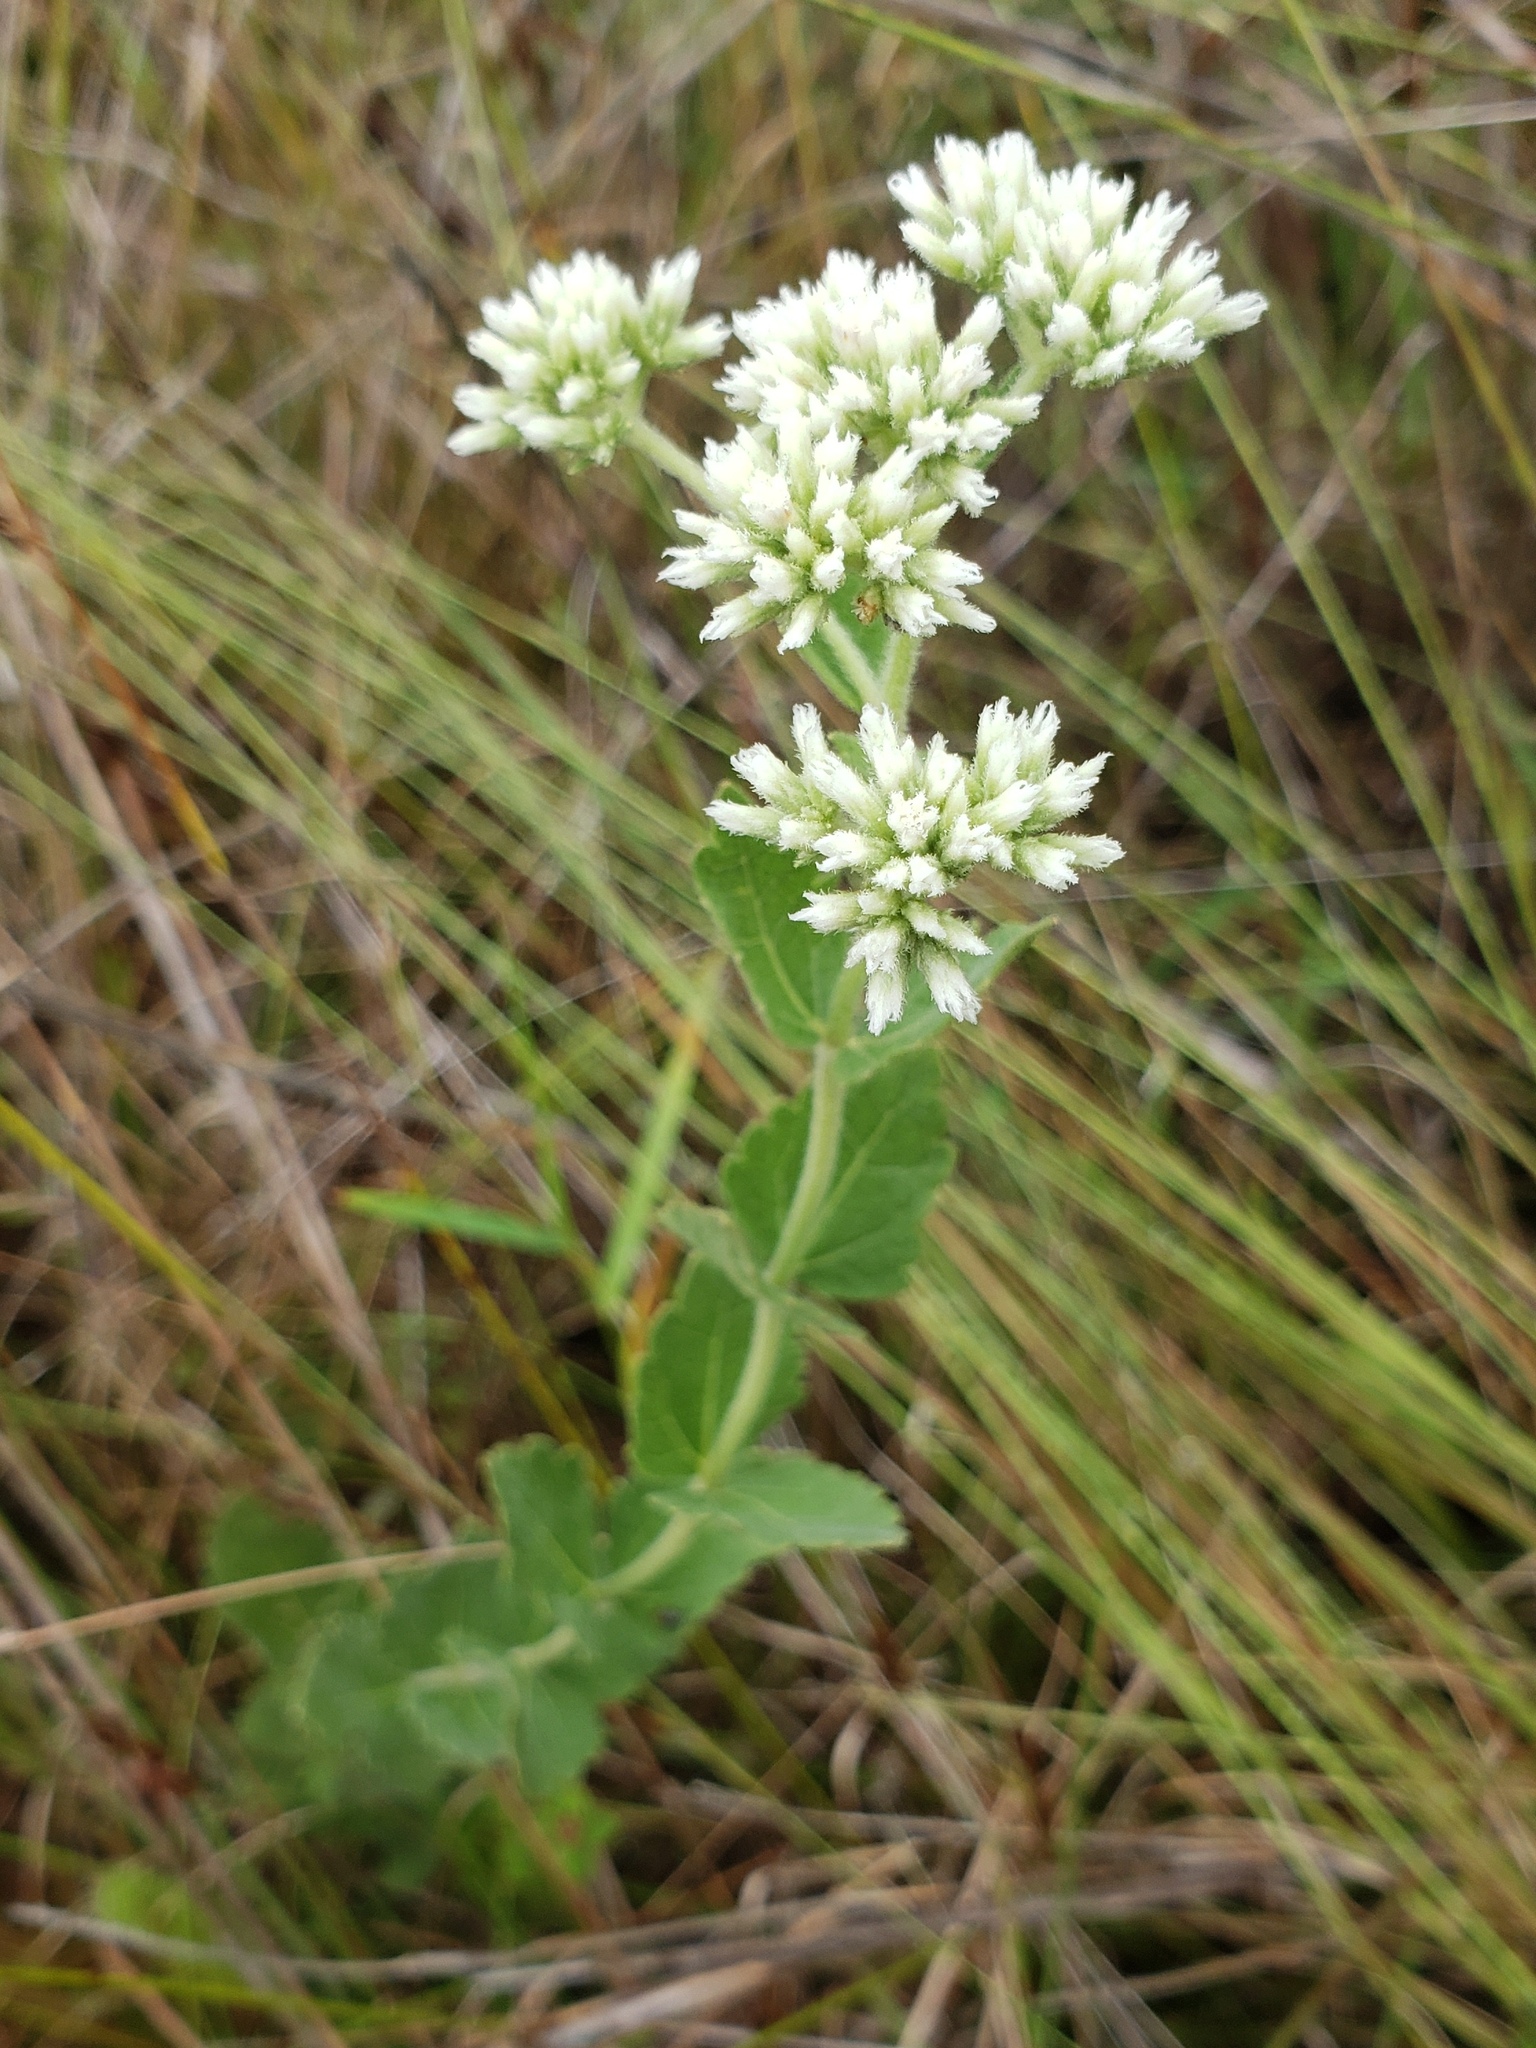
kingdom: Plantae
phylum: Tracheophyta
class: Magnoliopsida
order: Asterales
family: Asteraceae
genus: Eupatorium
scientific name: Eupatorium rotundifolium
